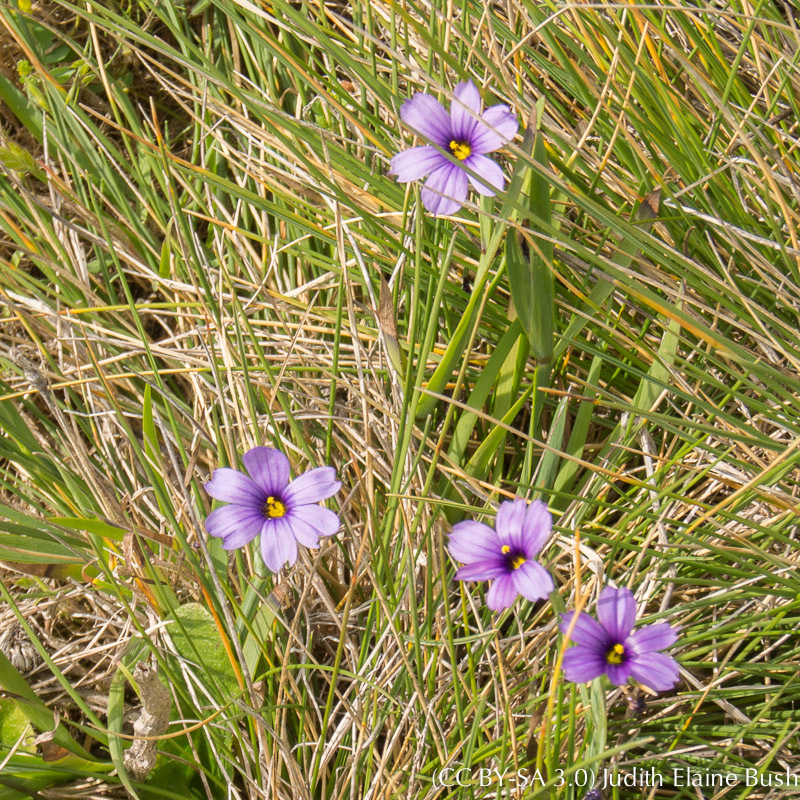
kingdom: Plantae
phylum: Tracheophyta
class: Liliopsida
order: Asparagales
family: Iridaceae
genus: Sisyrinchium
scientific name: Sisyrinchium bellum
